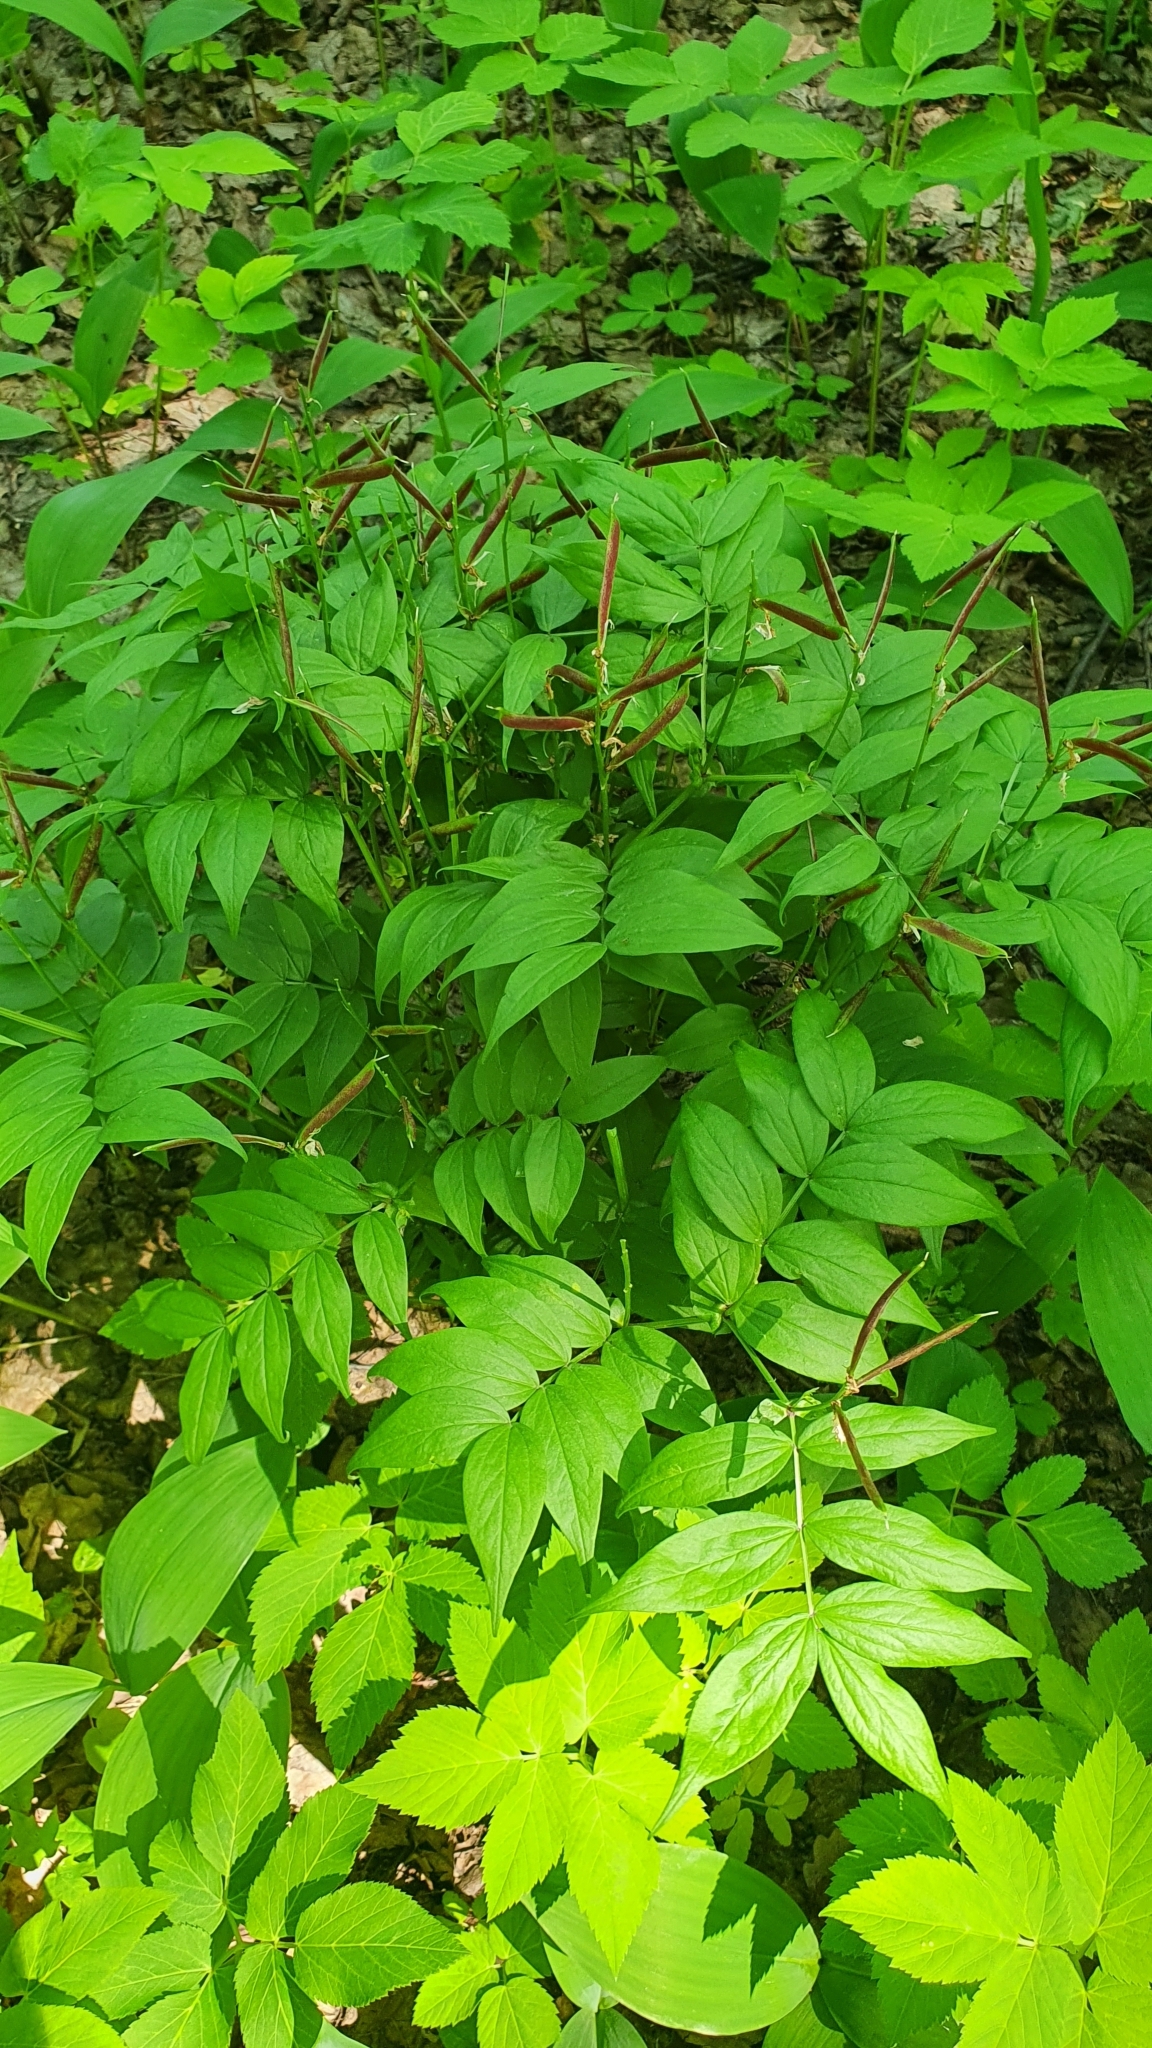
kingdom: Plantae
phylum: Tracheophyta
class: Magnoliopsida
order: Fabales
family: Fabaceae
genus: Lathyrus
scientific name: Lathyrus vernus
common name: Spring pea
